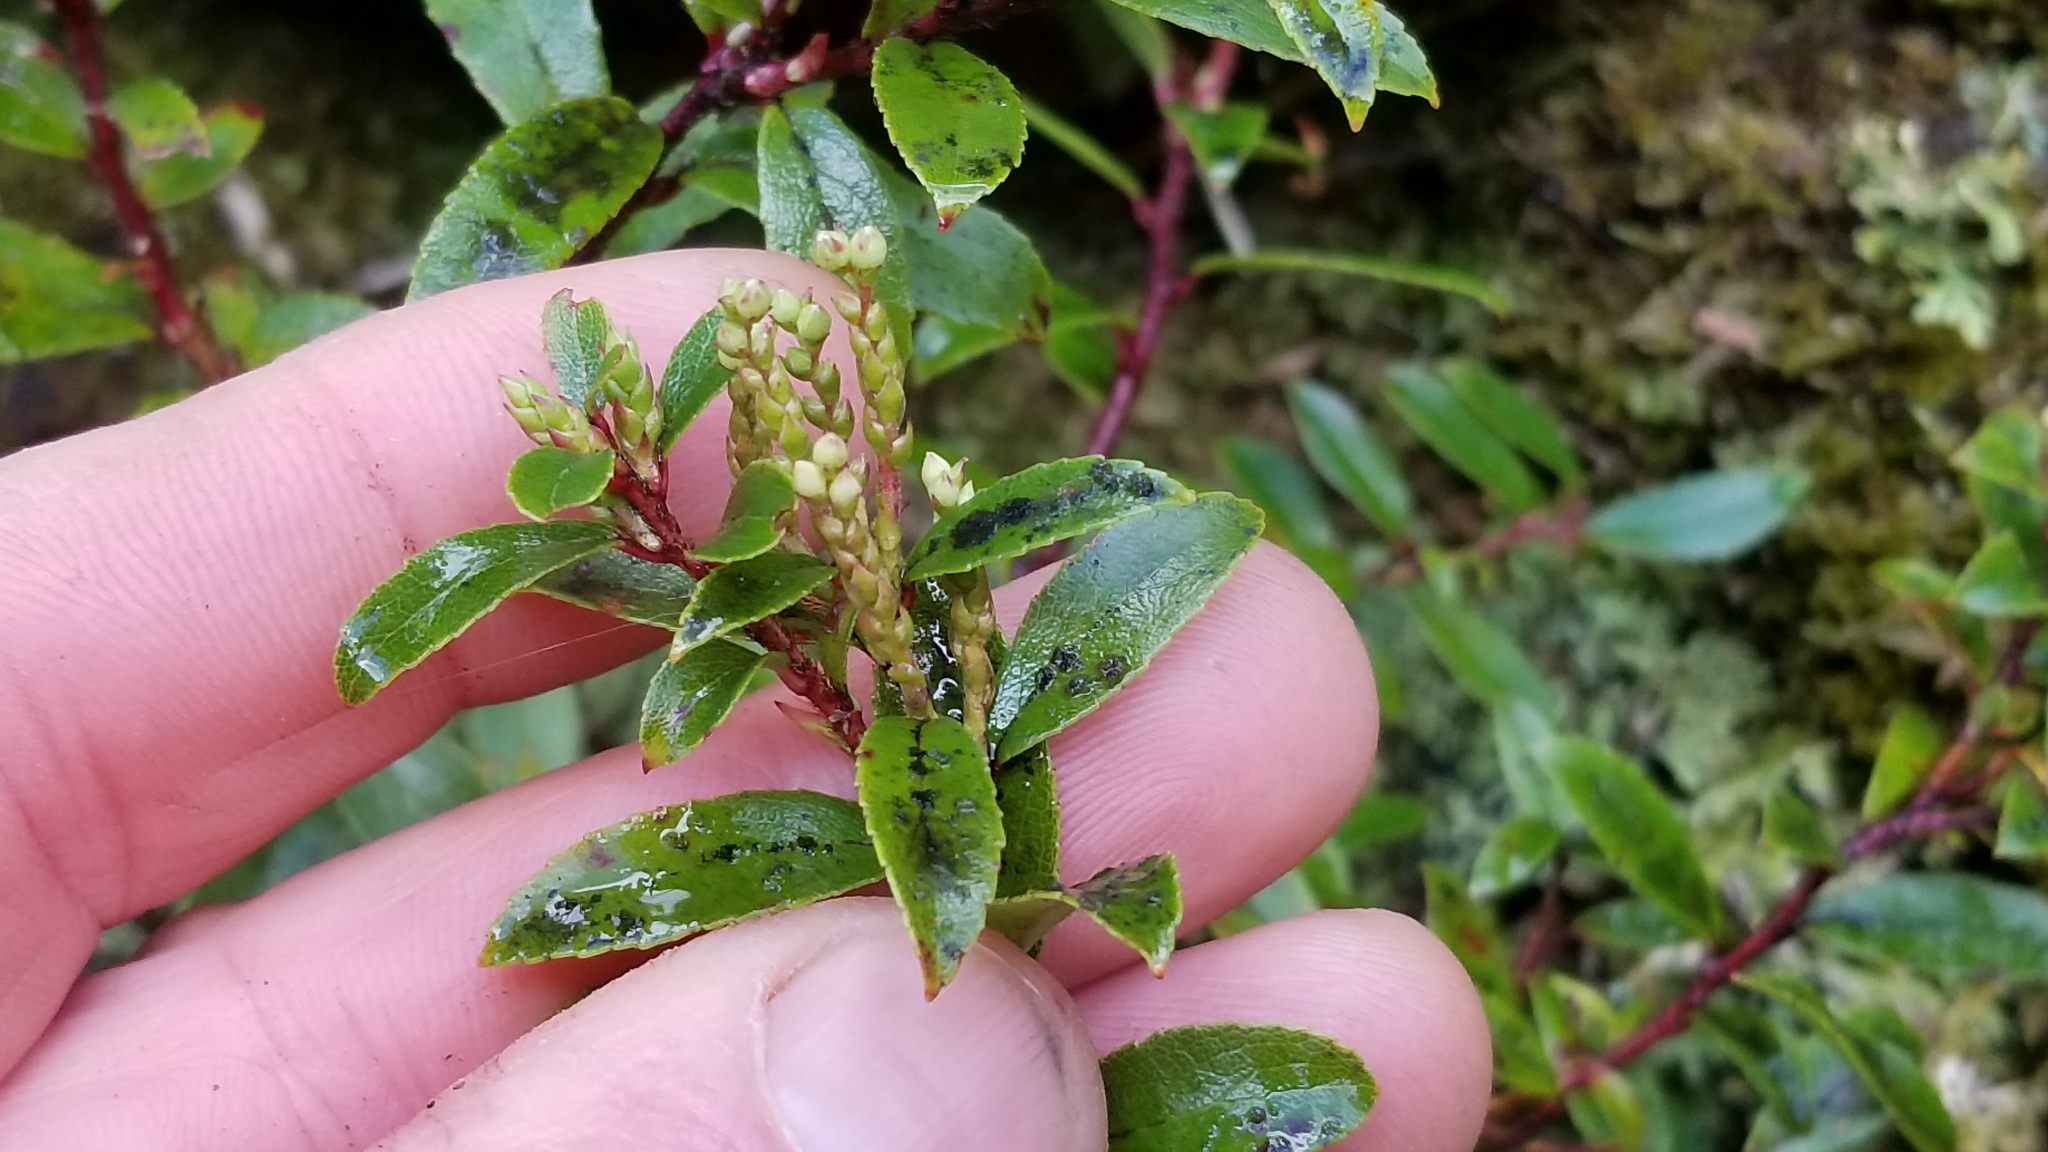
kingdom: Plantae
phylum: Tracheophyta
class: Magnoliopsida
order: Ericales
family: Ericaceae
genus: Gaultheria
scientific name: Gaultheria rupestris
